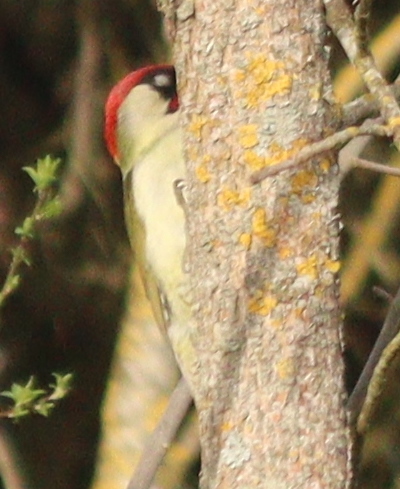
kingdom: Animalia
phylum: Chordata
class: Aves
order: Piciformes
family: Picidae
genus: Picus
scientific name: Picus viridis
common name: European green woodpecker
